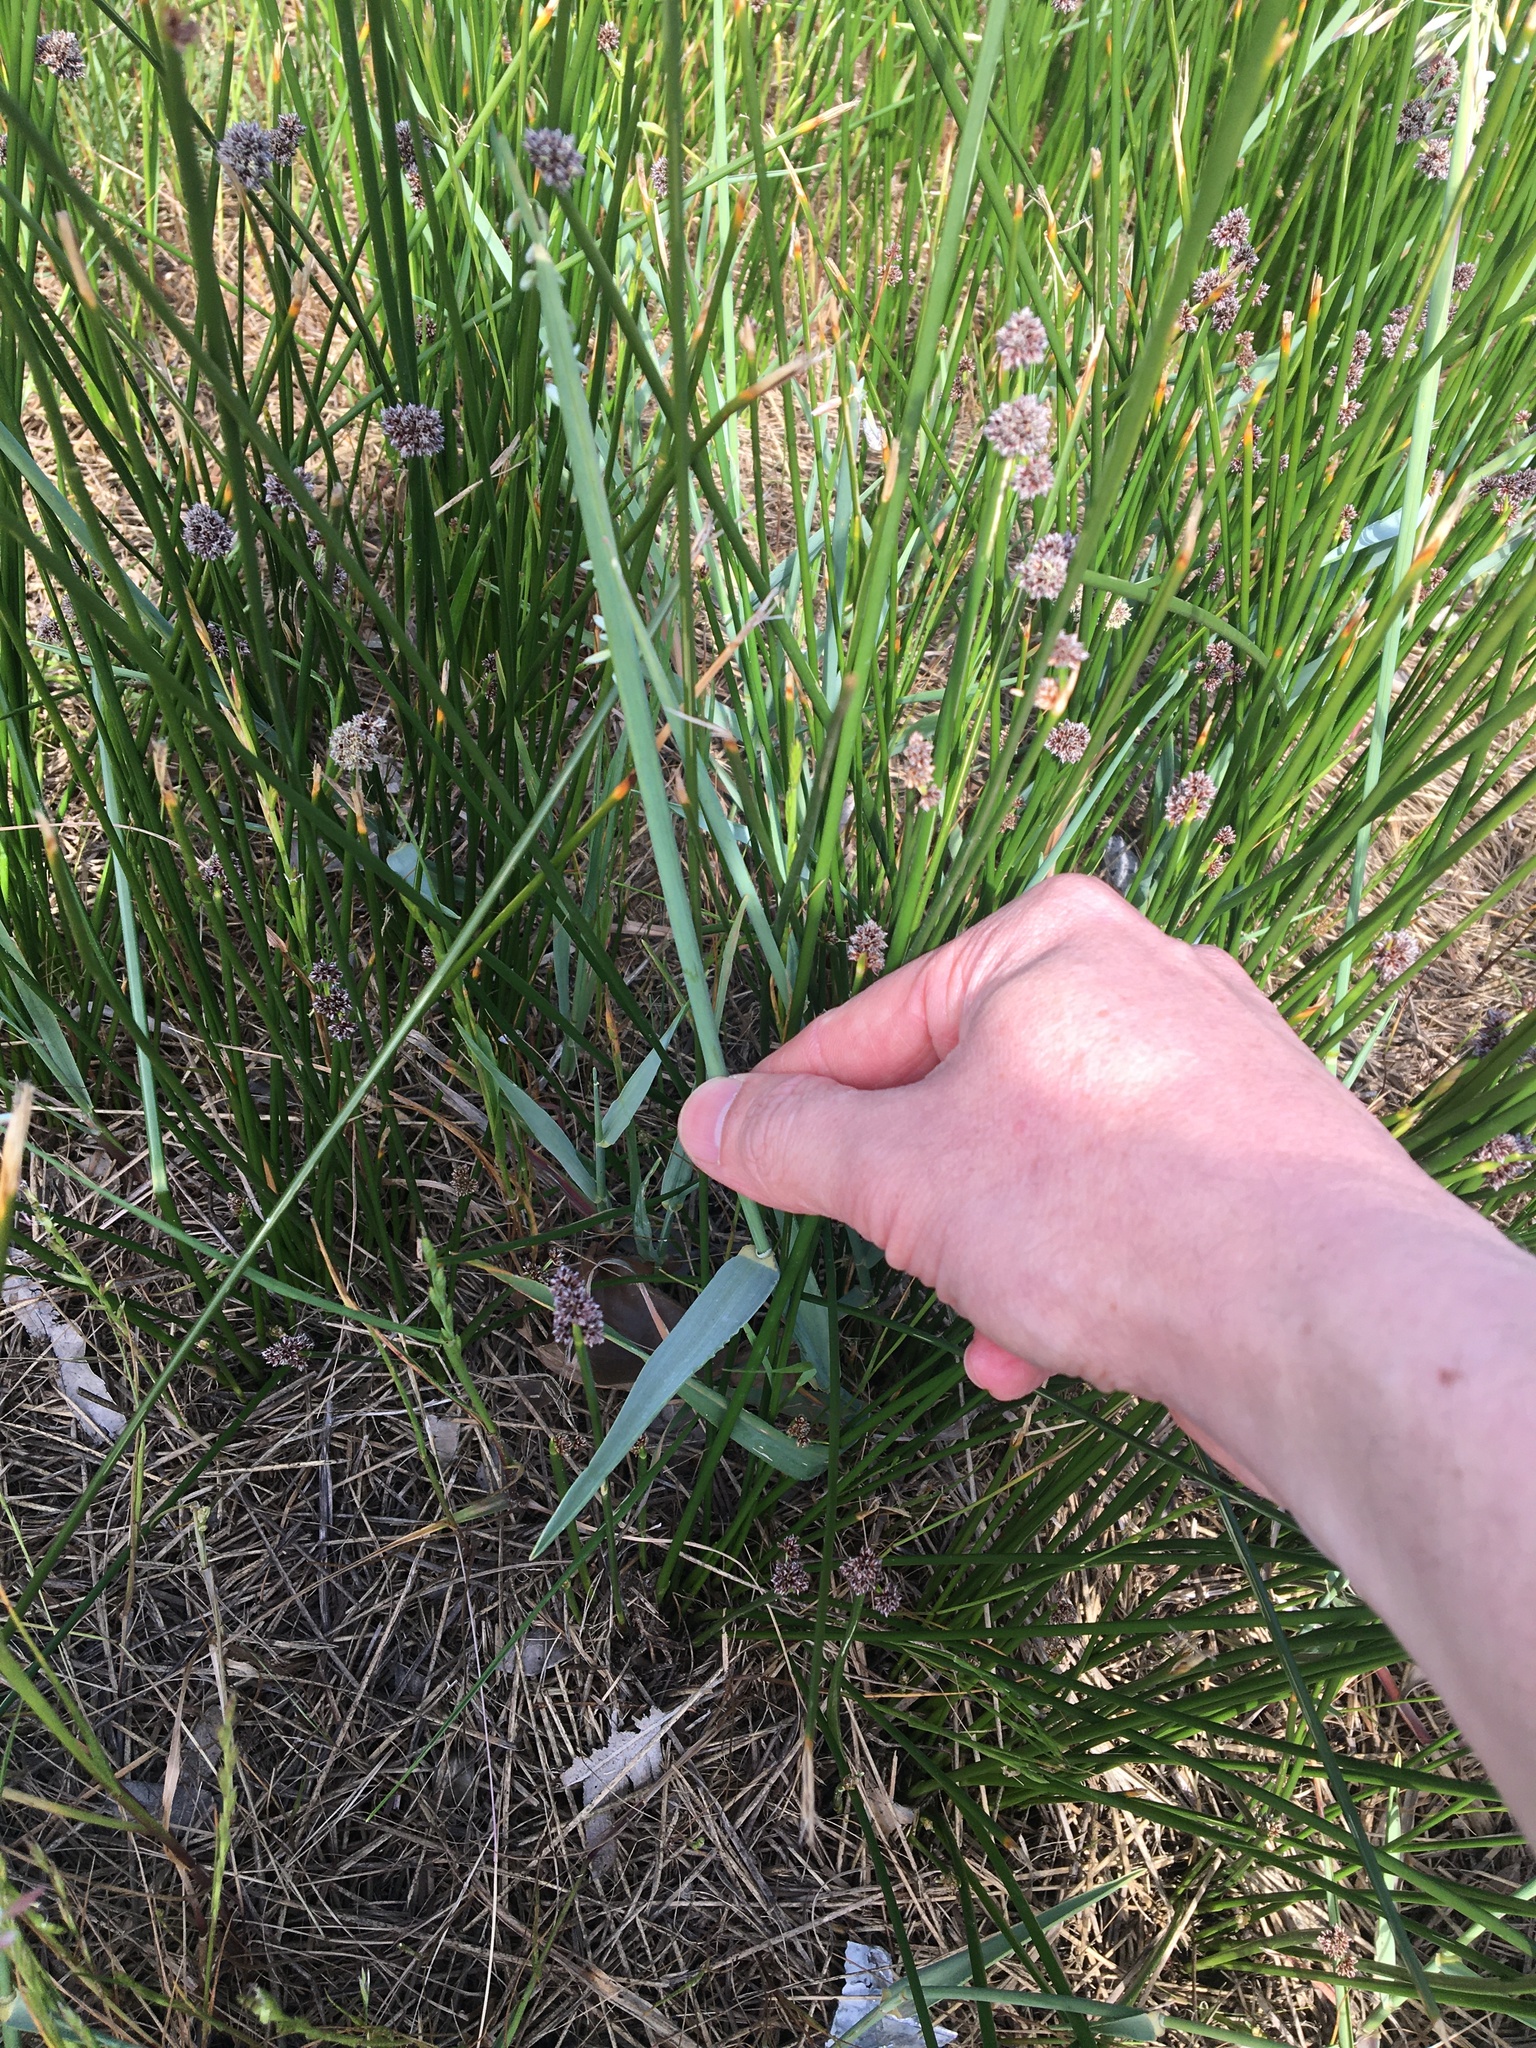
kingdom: Plantae
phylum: Tracheophyta
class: Liliopsida
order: Poales
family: Poaceae
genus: Ehrharta
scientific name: Ehrharta calycina
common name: Perennial veldtgrass
